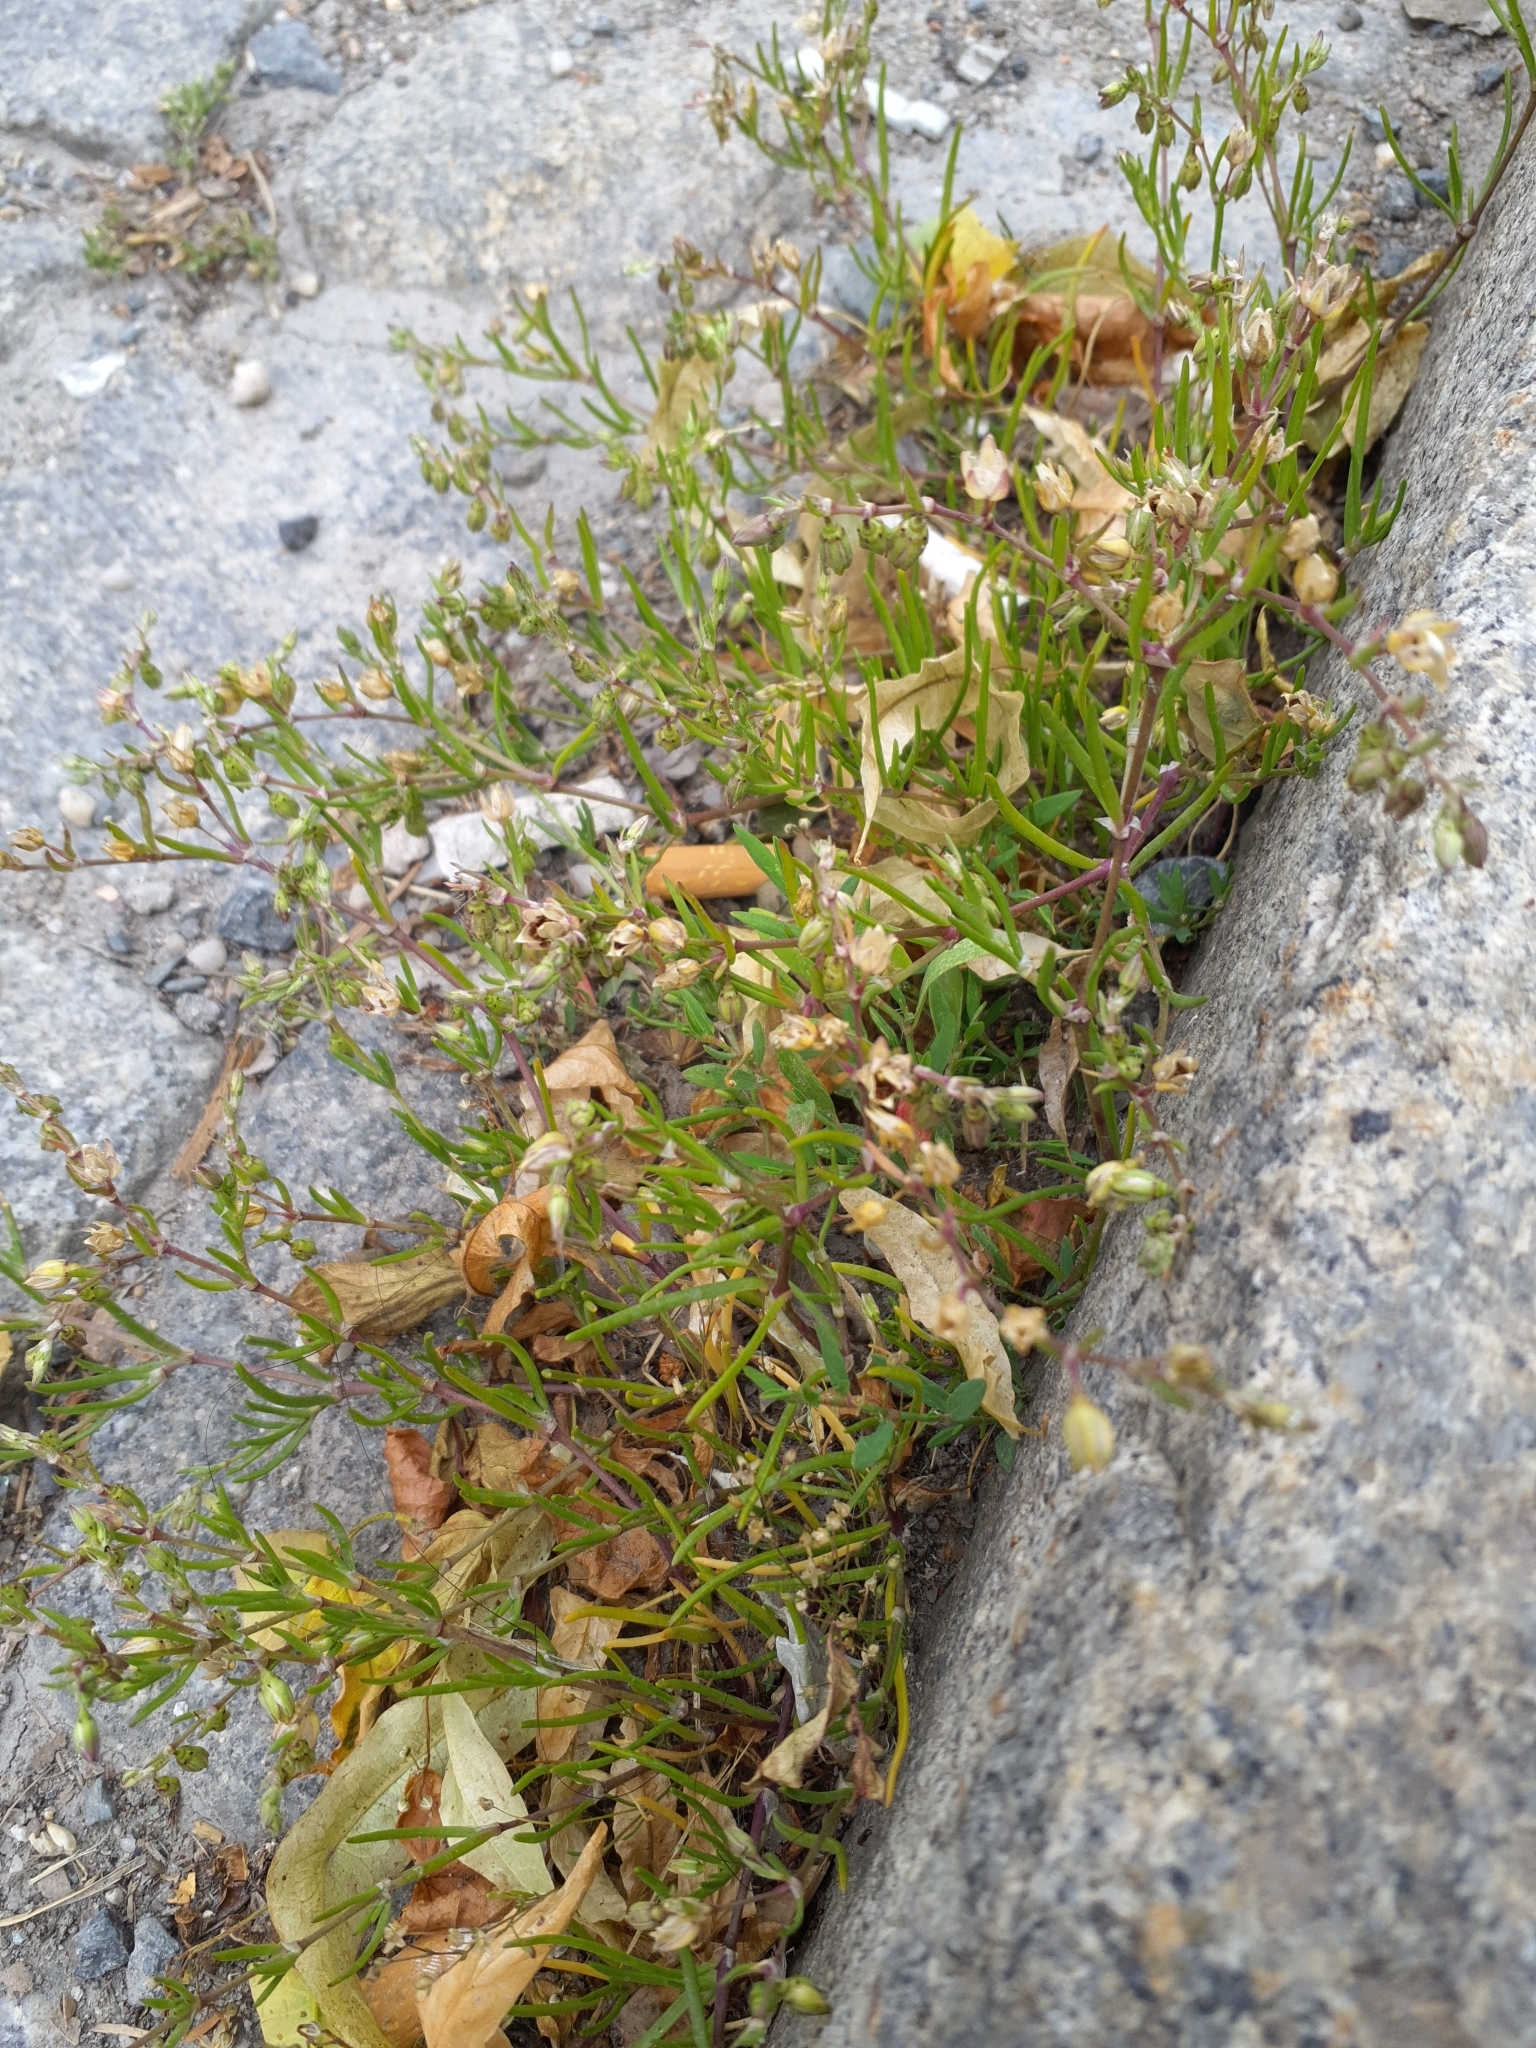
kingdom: Plantae
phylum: Tracheophyta
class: Magnoliopsida
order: Caryophyllales
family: Caryophyllaceae
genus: Spergularia
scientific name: Spergularia marina
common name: Lesser sea-spurrey
